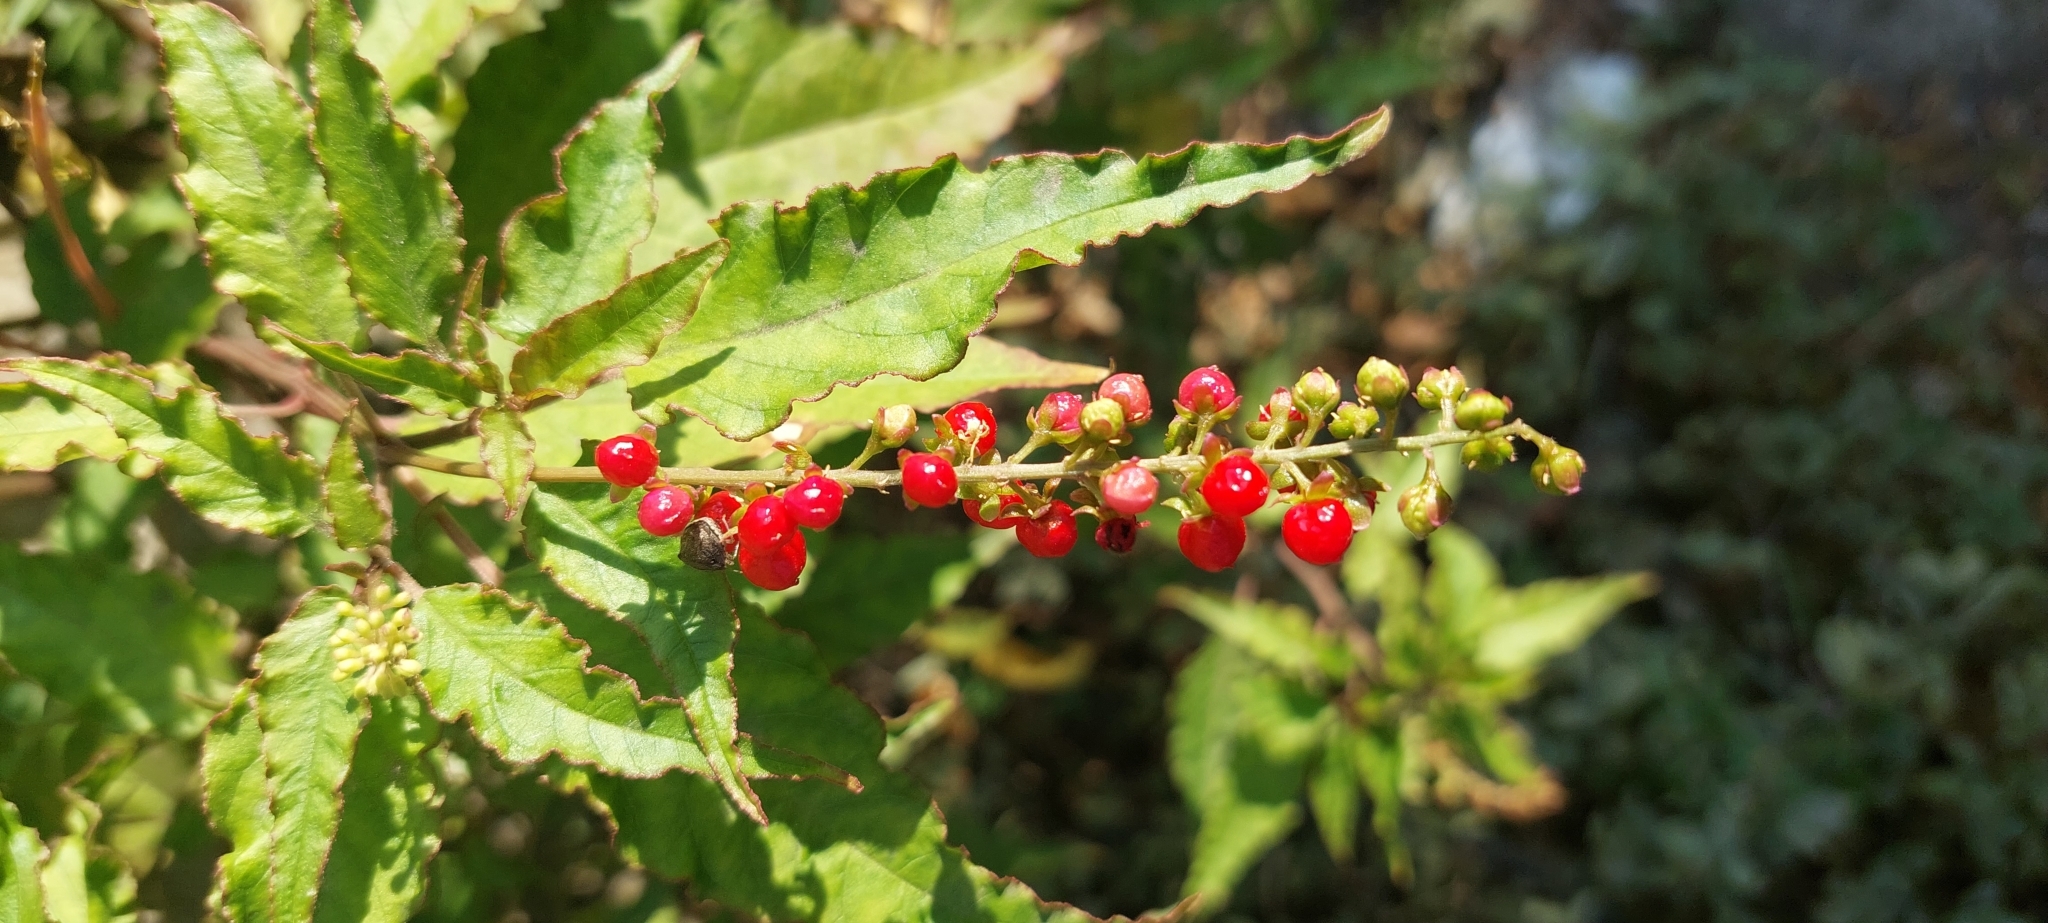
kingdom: Plantae
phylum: Tracheophyta
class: Magnoliopsida
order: Caryophyllales
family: Phytolaccaceae
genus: Rivina
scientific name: Rivina humilis
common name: Rougeplant
